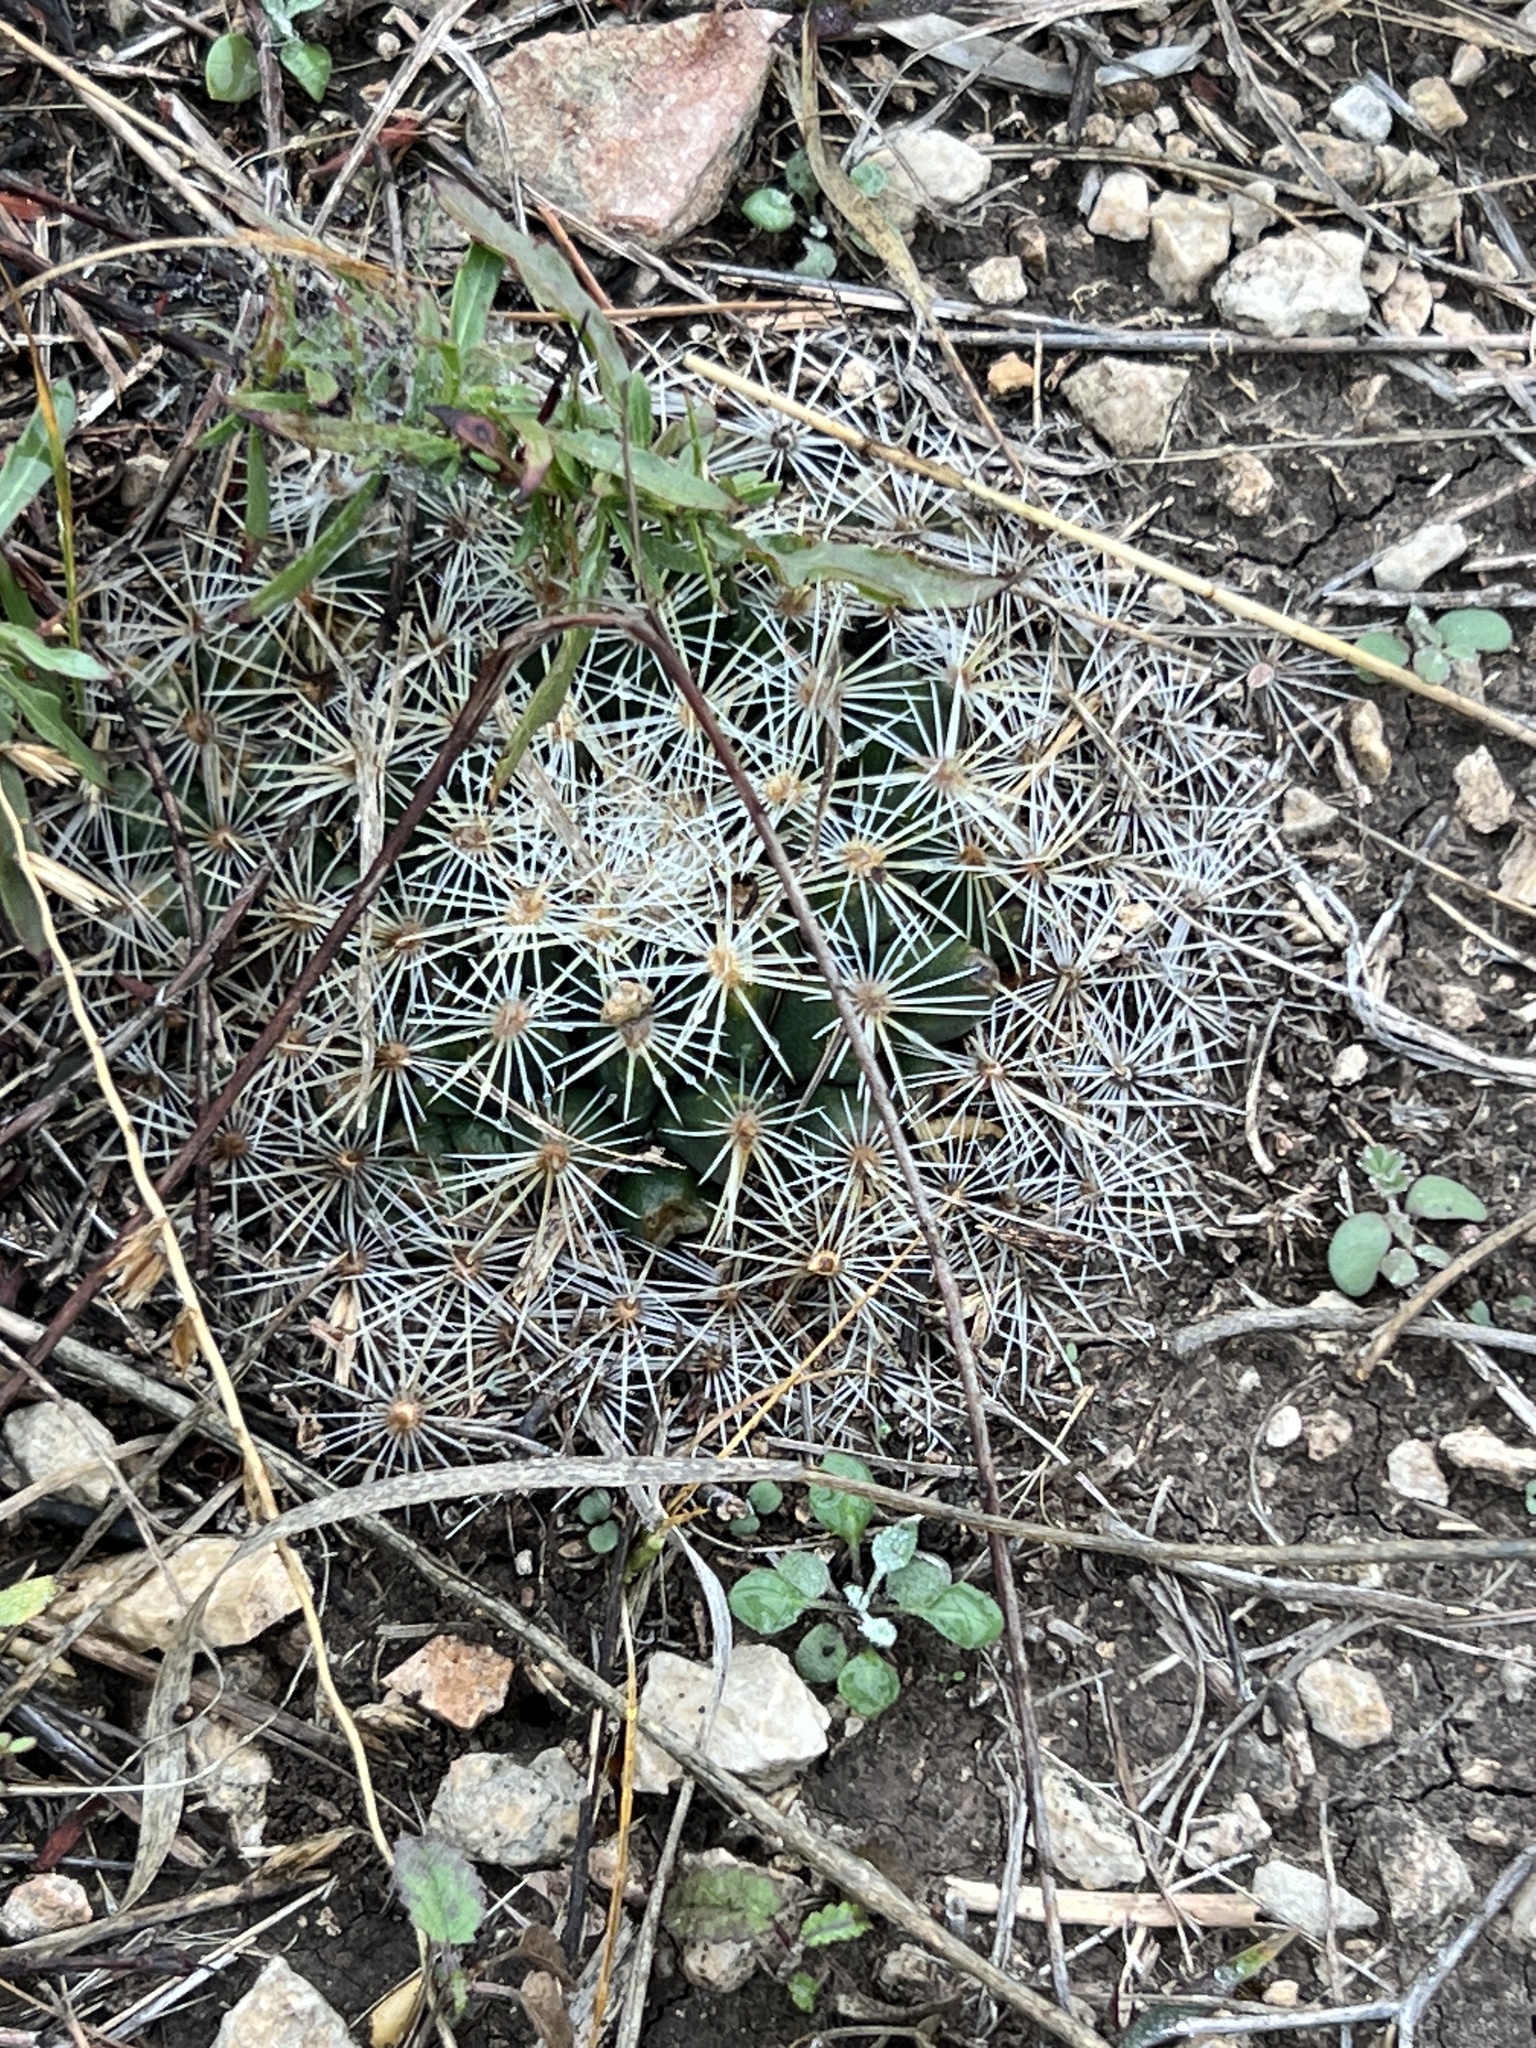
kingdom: Plantae
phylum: Tracheophyta
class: Magnoliopsida
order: Caryophyllales
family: Cactaceae
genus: Mammillaria
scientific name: Mammillaria heyderi
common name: Little nipple cactus
